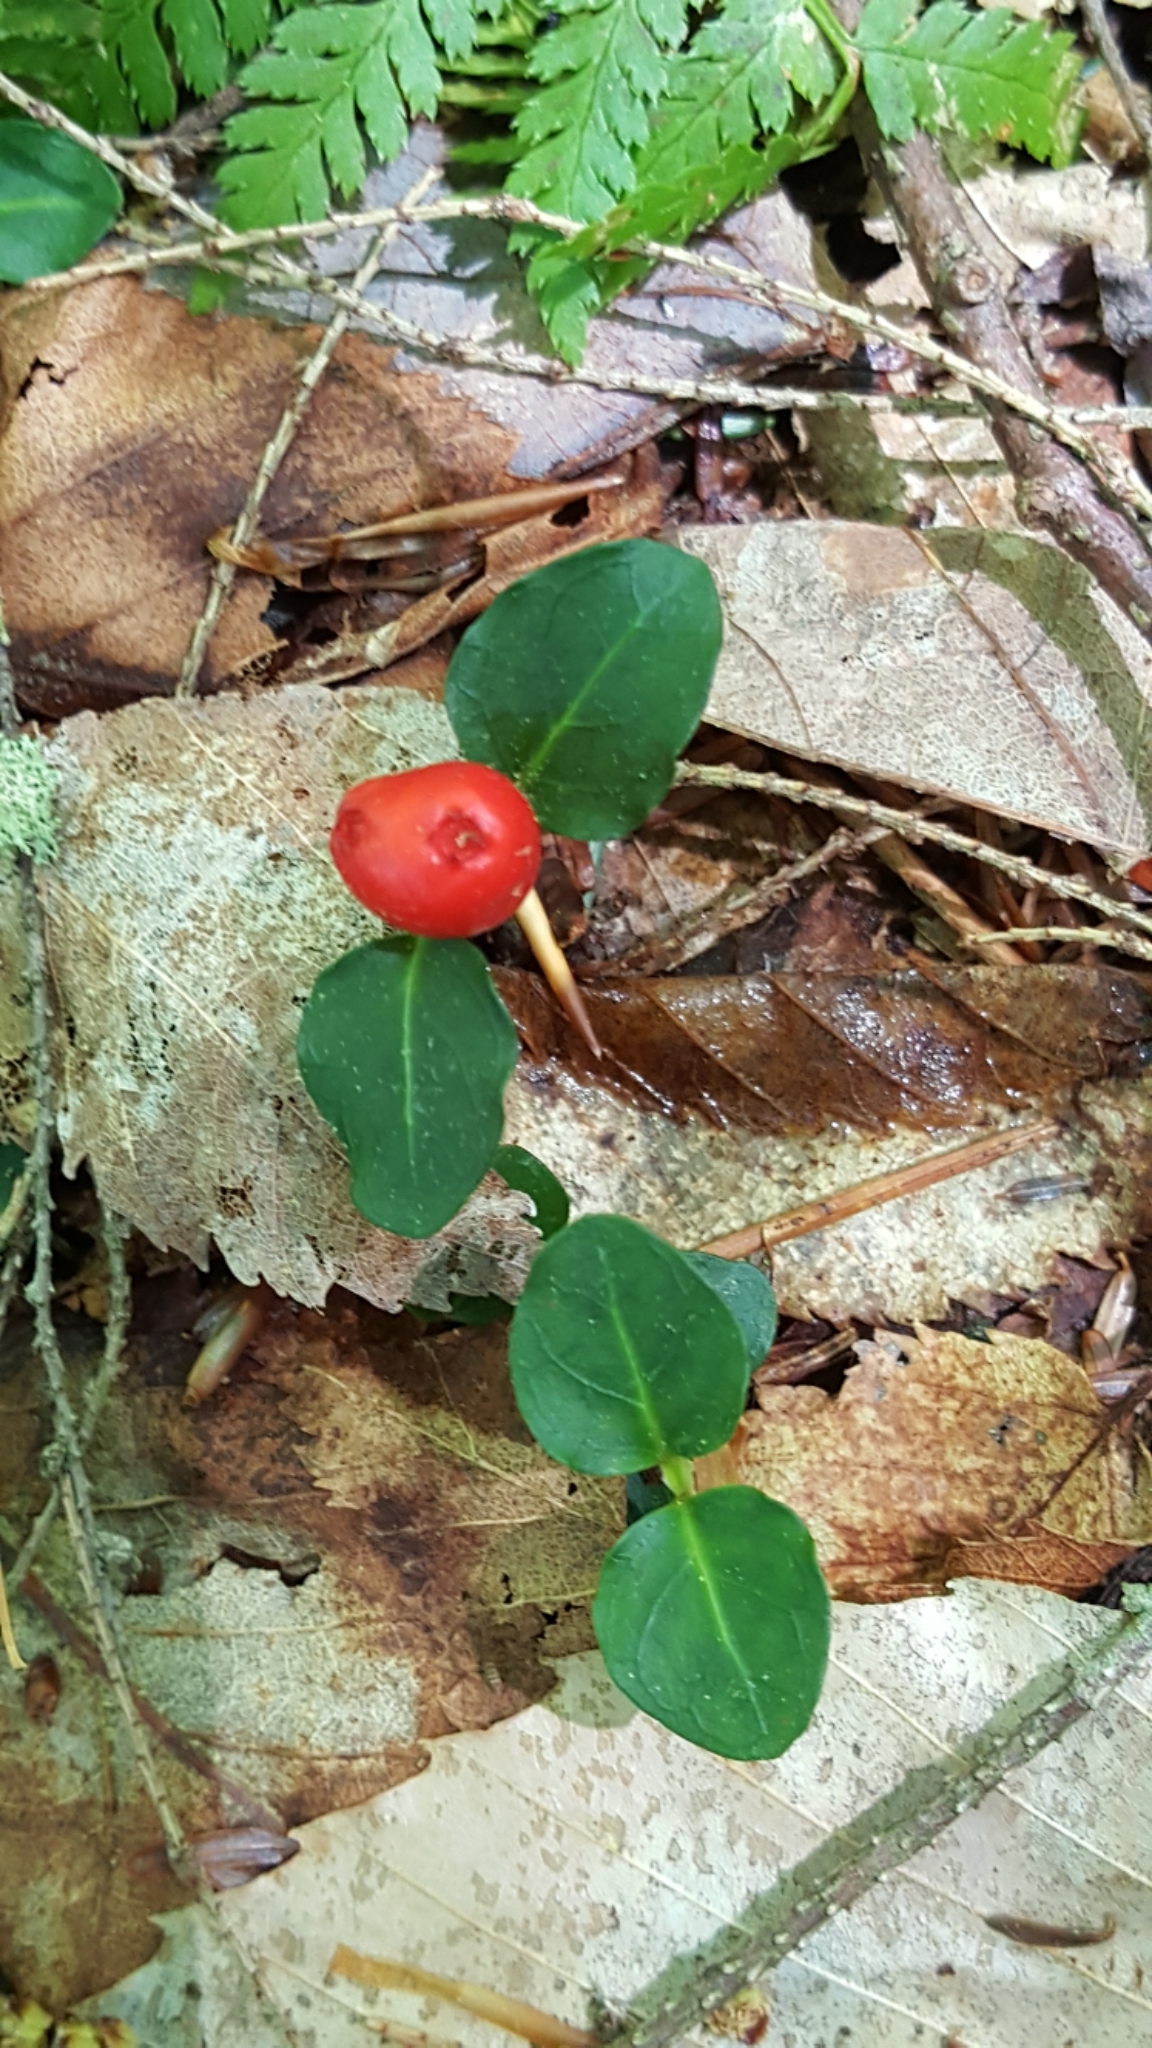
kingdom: Plantae
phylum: Tracheophyta
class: Magnoliopsida
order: Gentianales
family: Rubiaceae
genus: Mitchella
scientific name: Mitchella repens
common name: Partridge-berry
